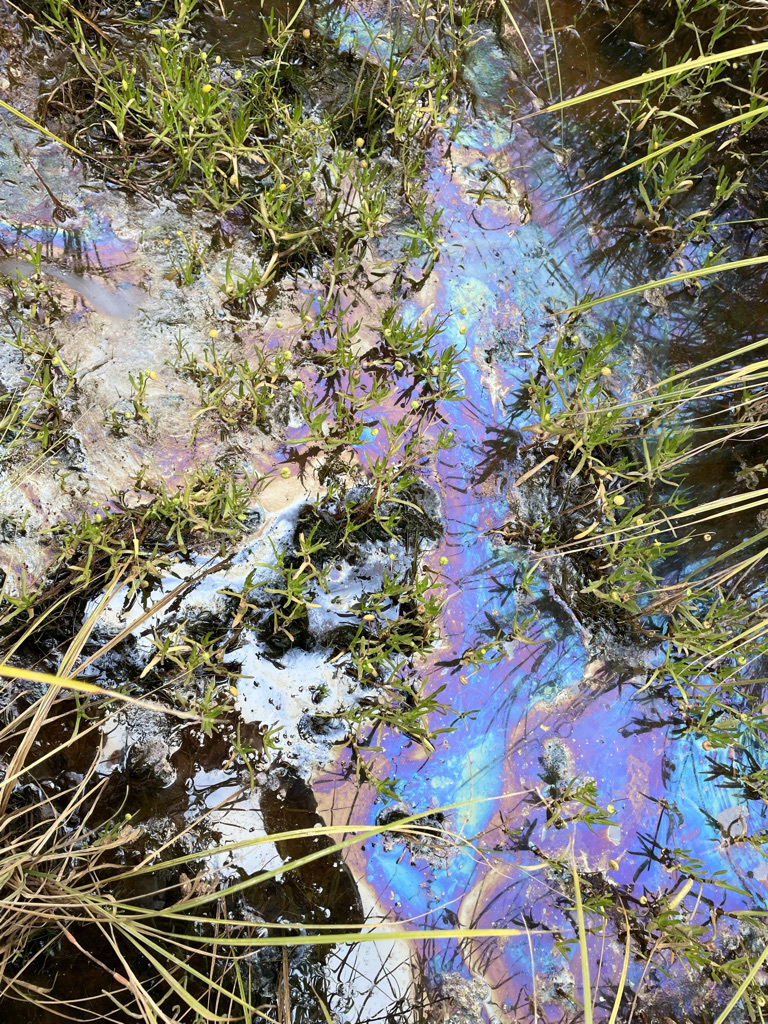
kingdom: Plantae
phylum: Tracheophyta
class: Magnoliopsida
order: Asterales
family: Asteraceae
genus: Cotula
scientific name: Cotula coronopifolia
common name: Buttonweed
